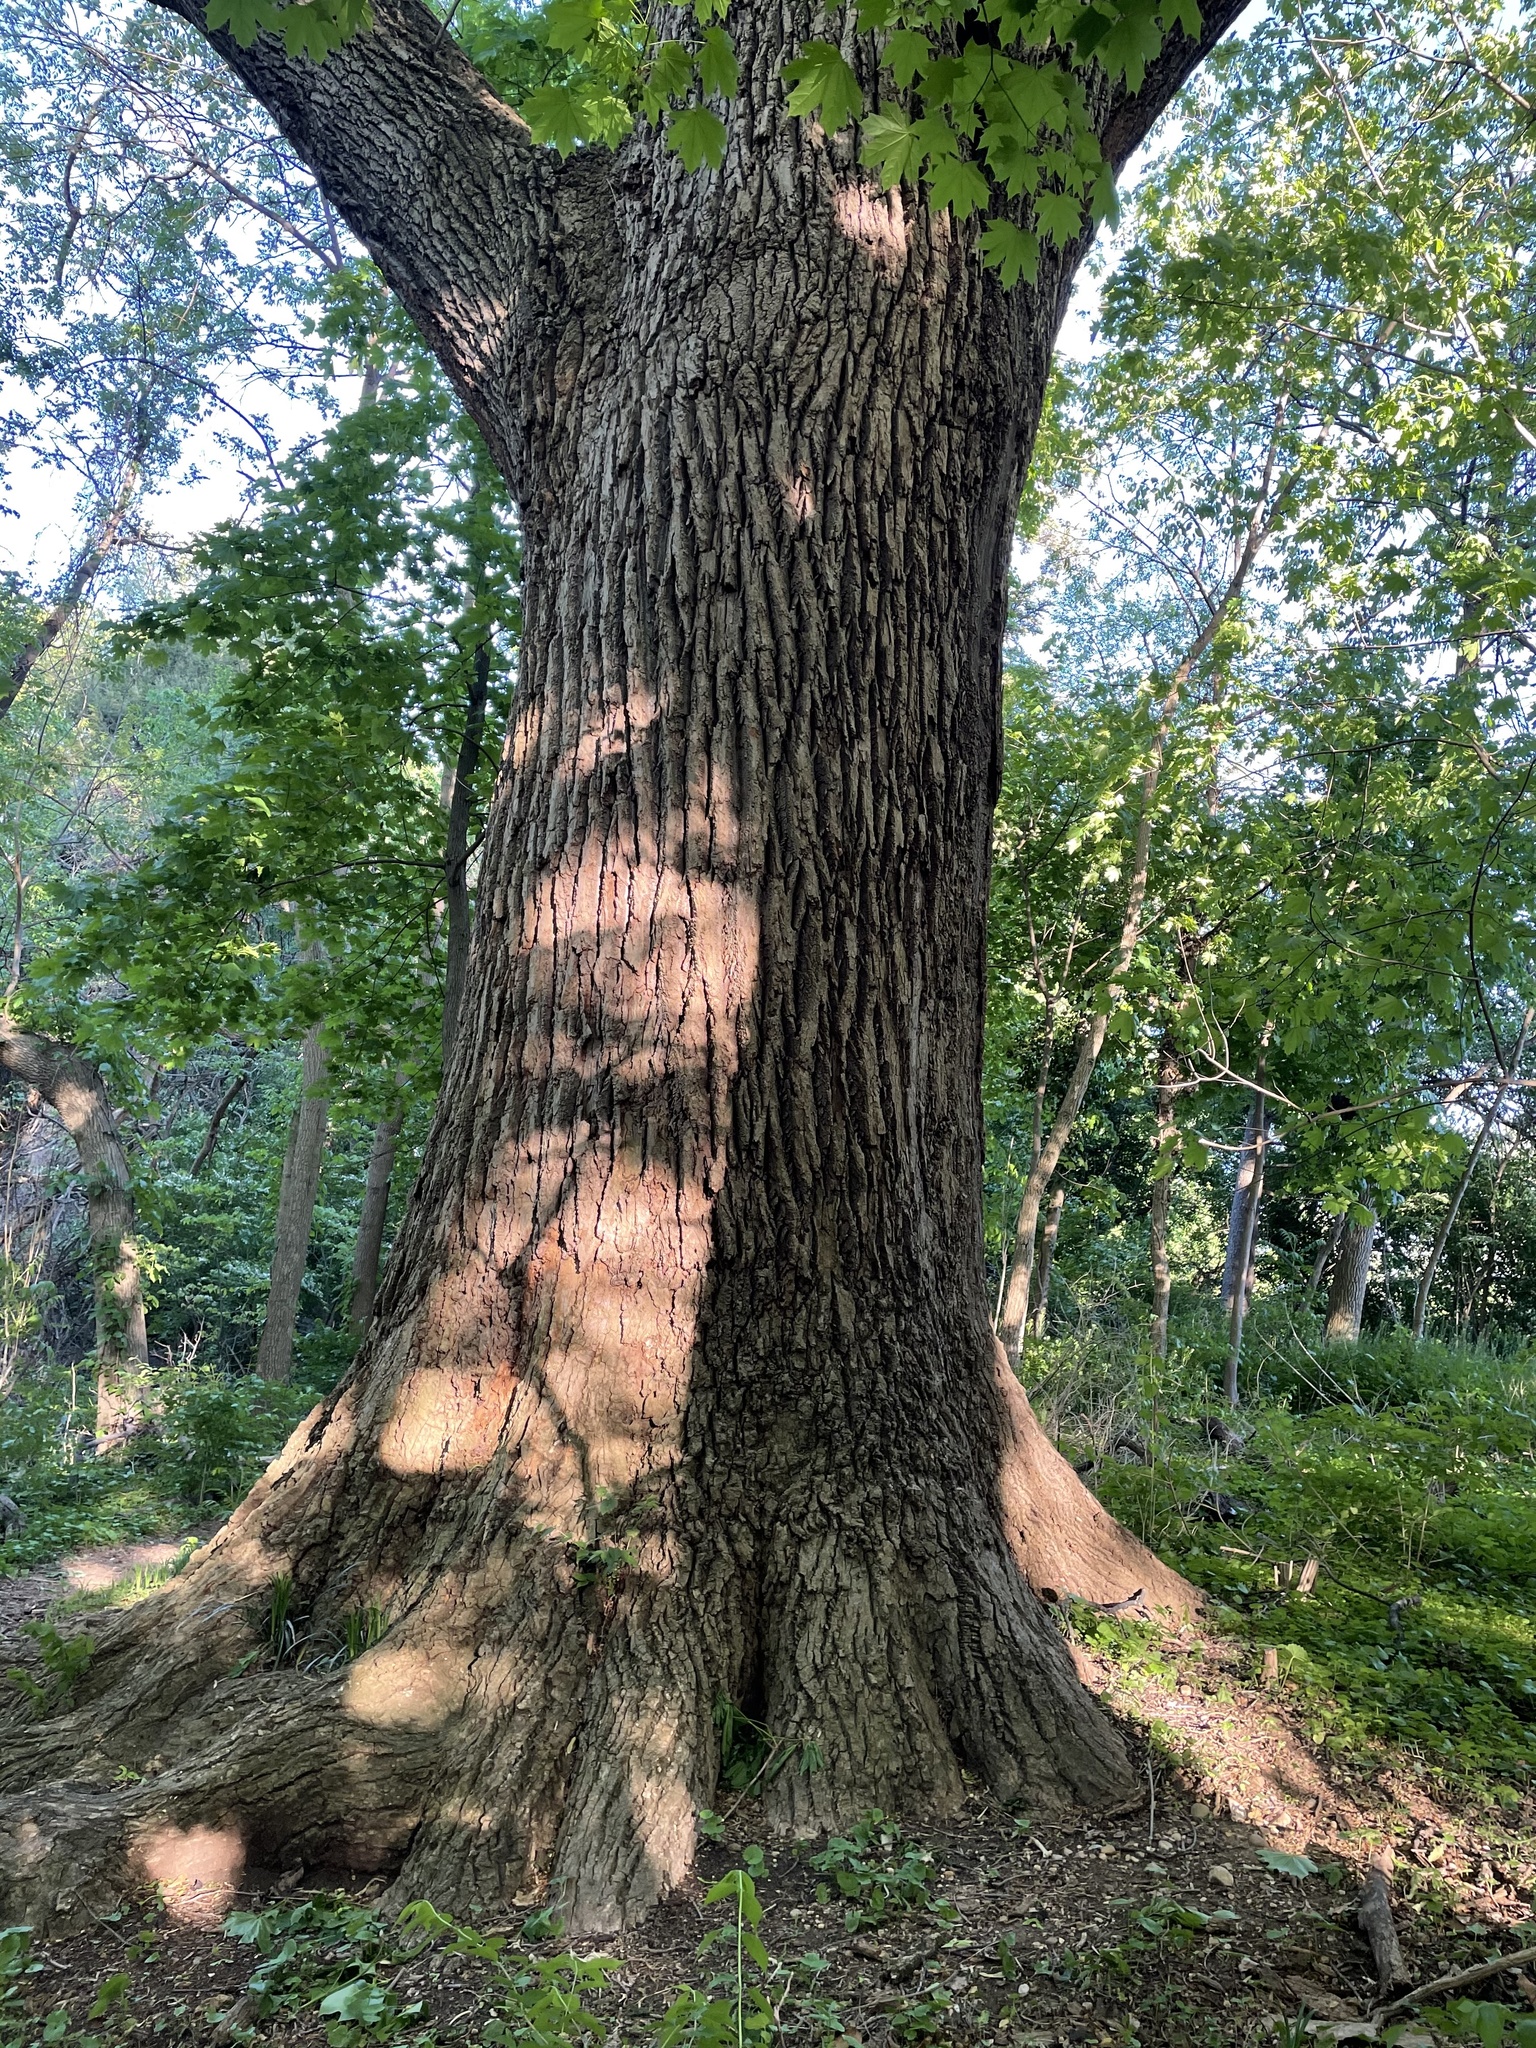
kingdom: Plantae
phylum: Tracheophyta
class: Magnoliopsida
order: Magnoliales
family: Magnoliaceae
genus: Liriodendron
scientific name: Liriodendron tulipifera
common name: Tulip tree
